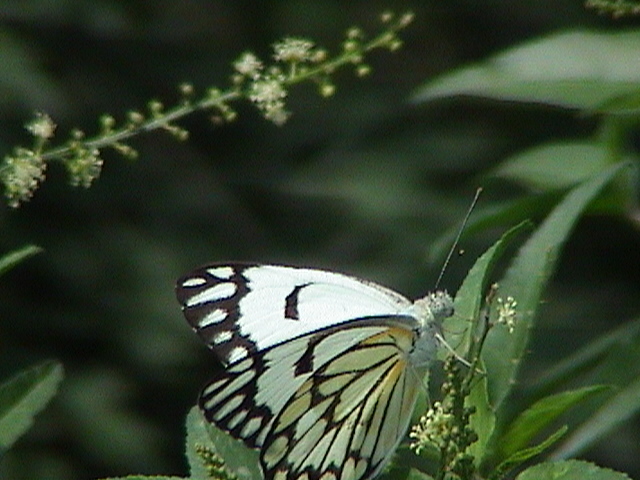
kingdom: Animalia
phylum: Arthropoda
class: Insecta
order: Lepidoptera
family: Pieridae
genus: Belenois
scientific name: Belenois aurota
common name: Brown-veined white
